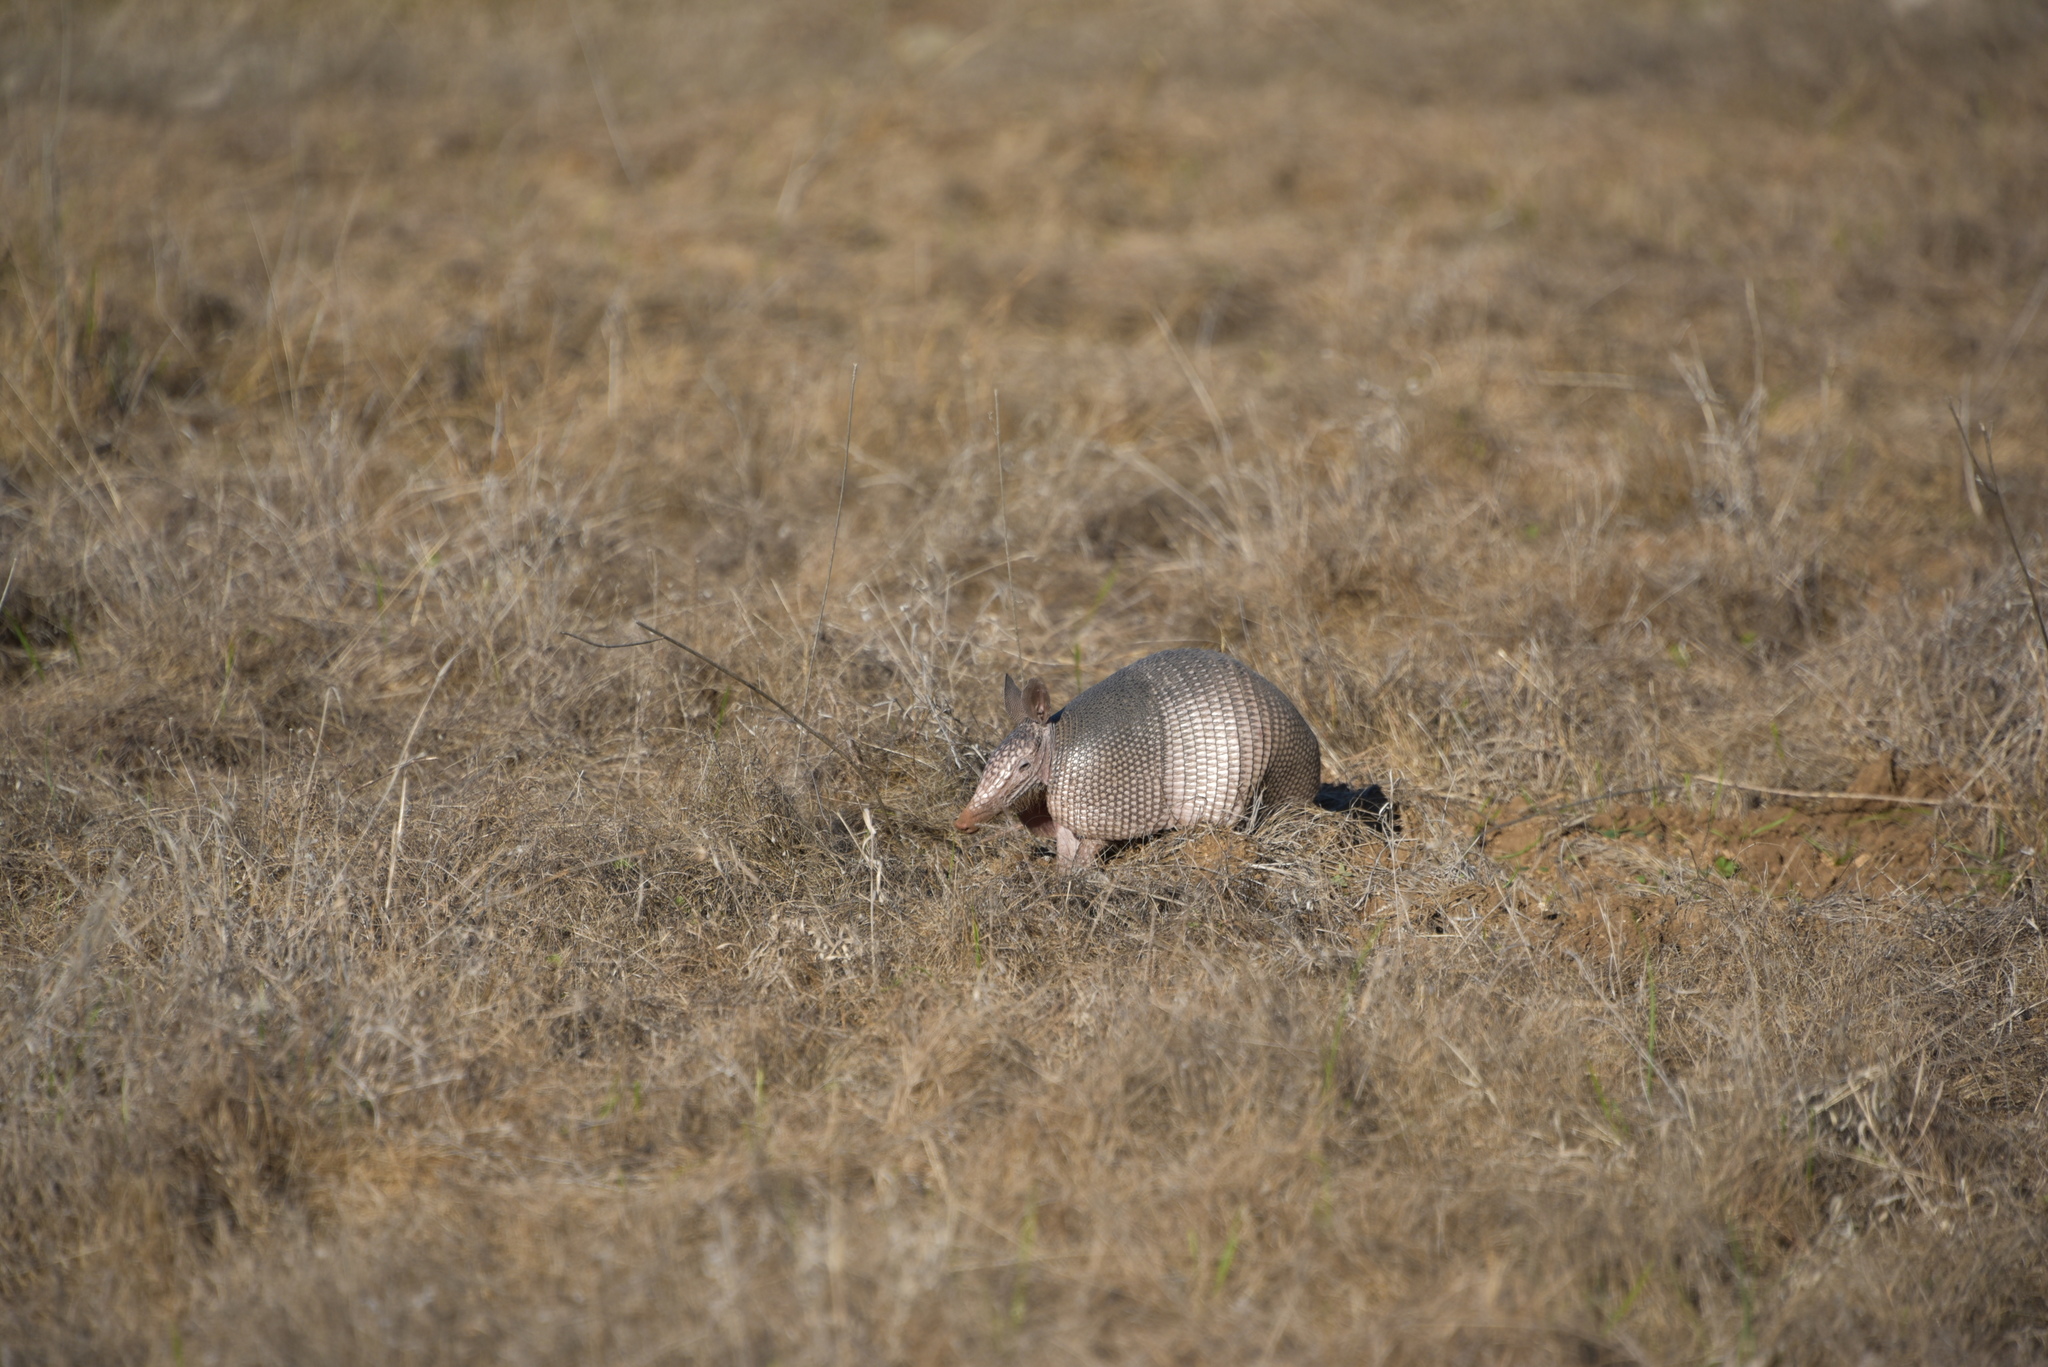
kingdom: Animalia
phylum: Chordata
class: Mammalia
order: Cingulata
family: Dasypodidae
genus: Dasypus
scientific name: Dasypus novemcinctus
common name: Nine-banded armadillo
